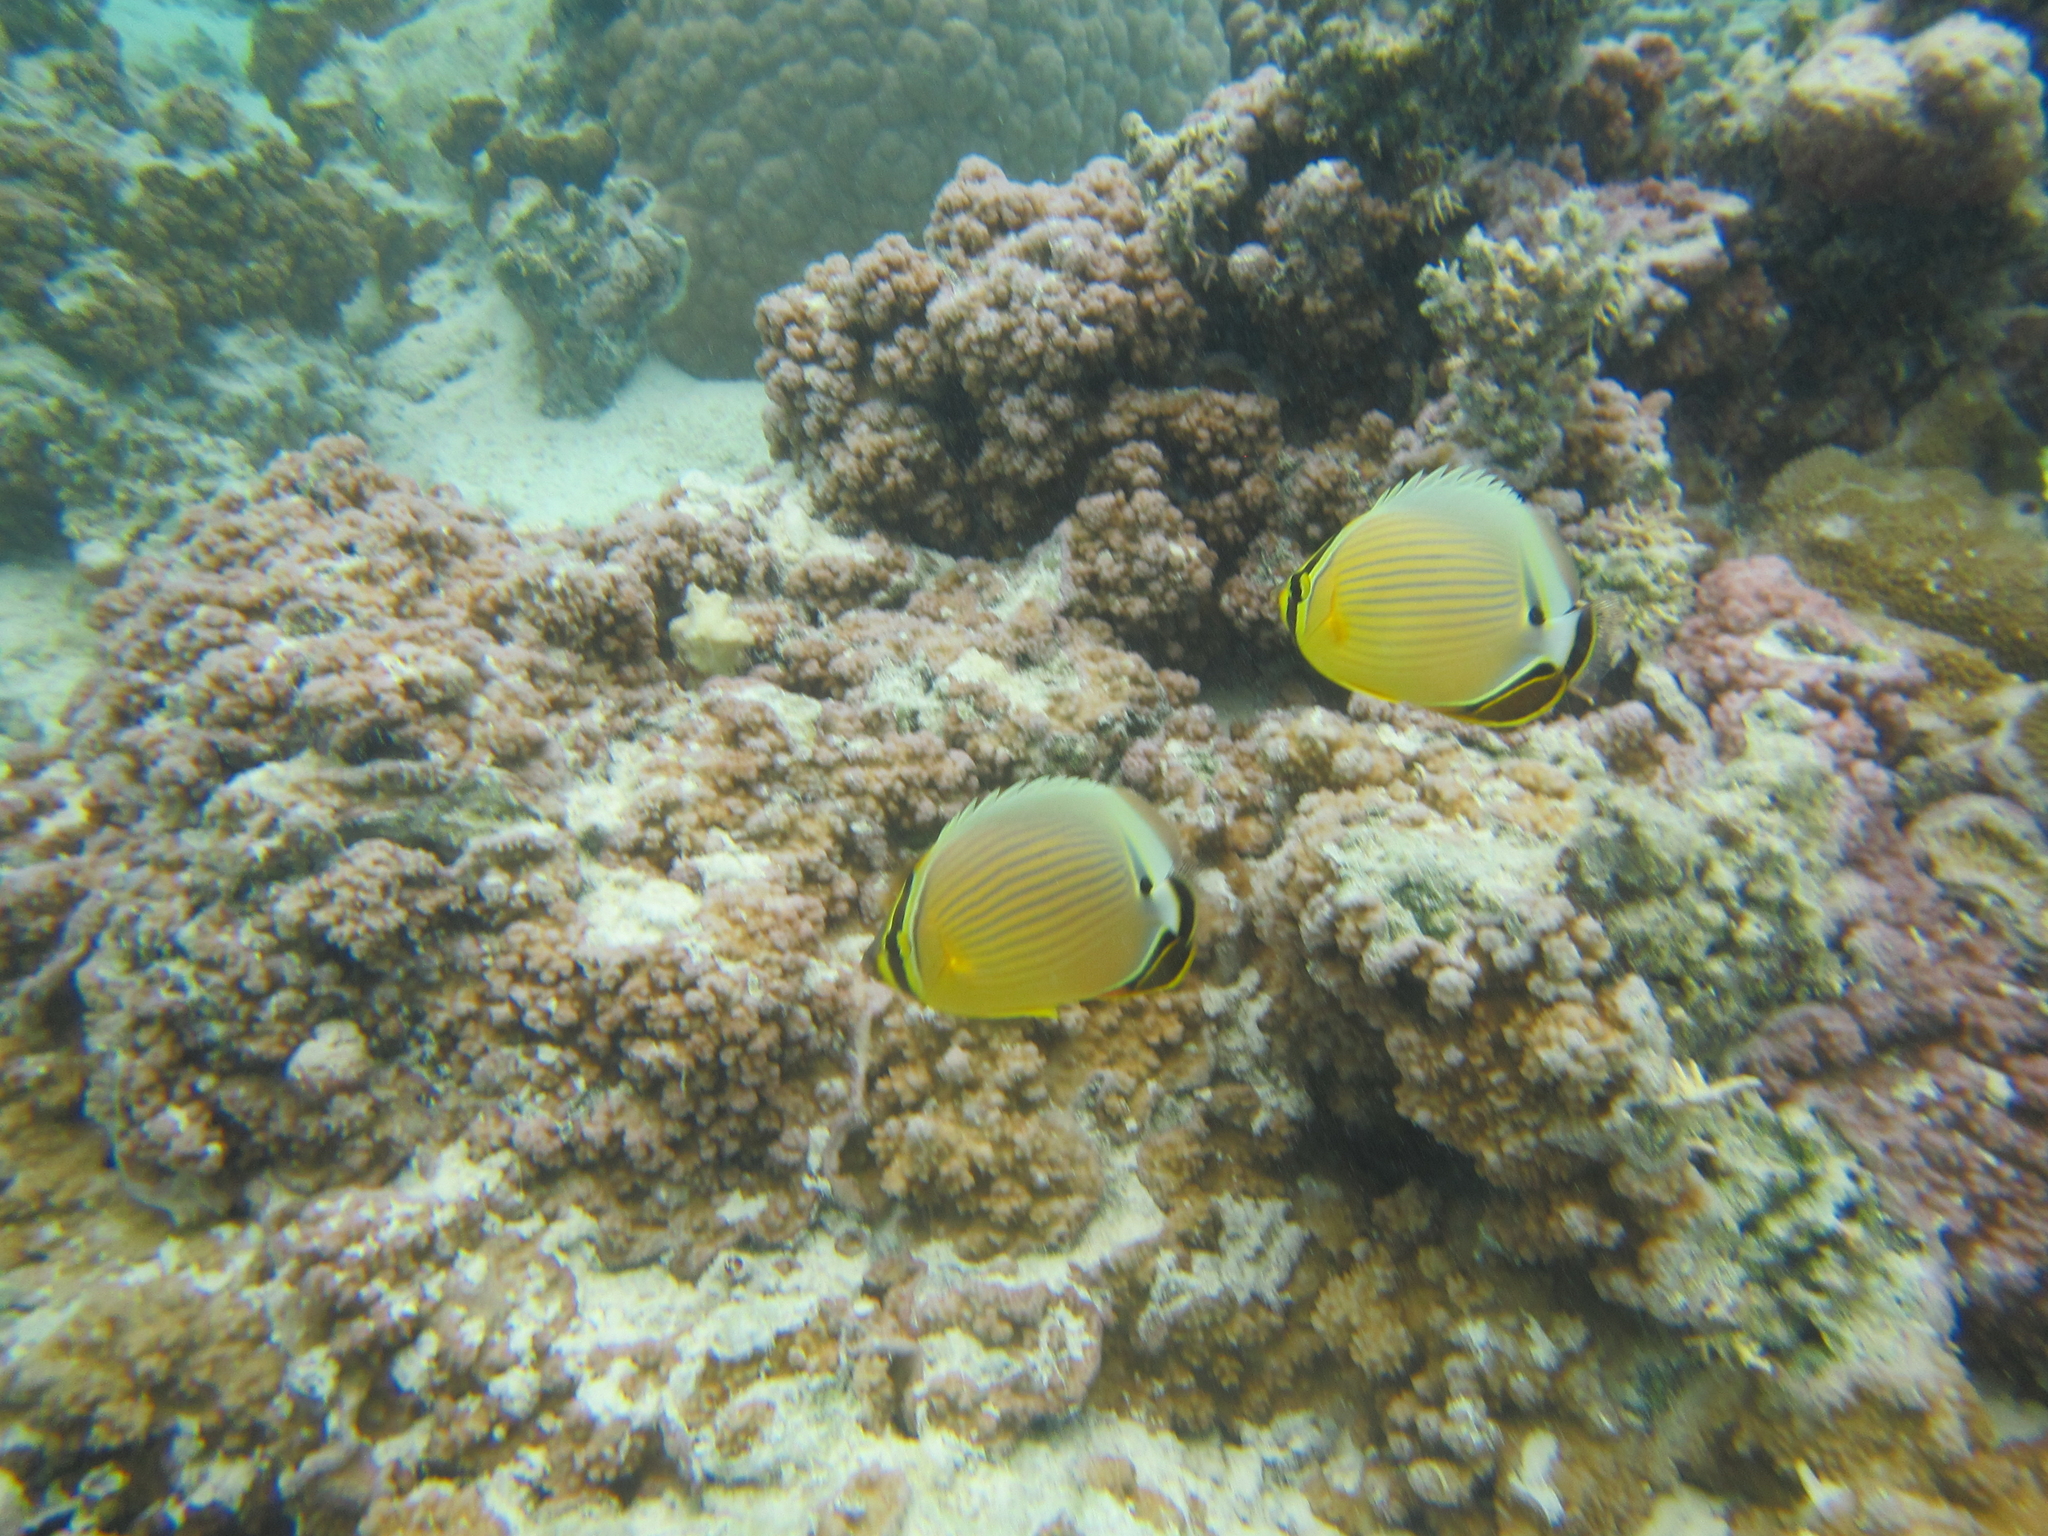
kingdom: Animalia
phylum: Chordata
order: Perciformes
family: Chaetodontidae
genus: Chaetodon
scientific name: Chaetodon lunulatus
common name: Redfin butterflyfish
